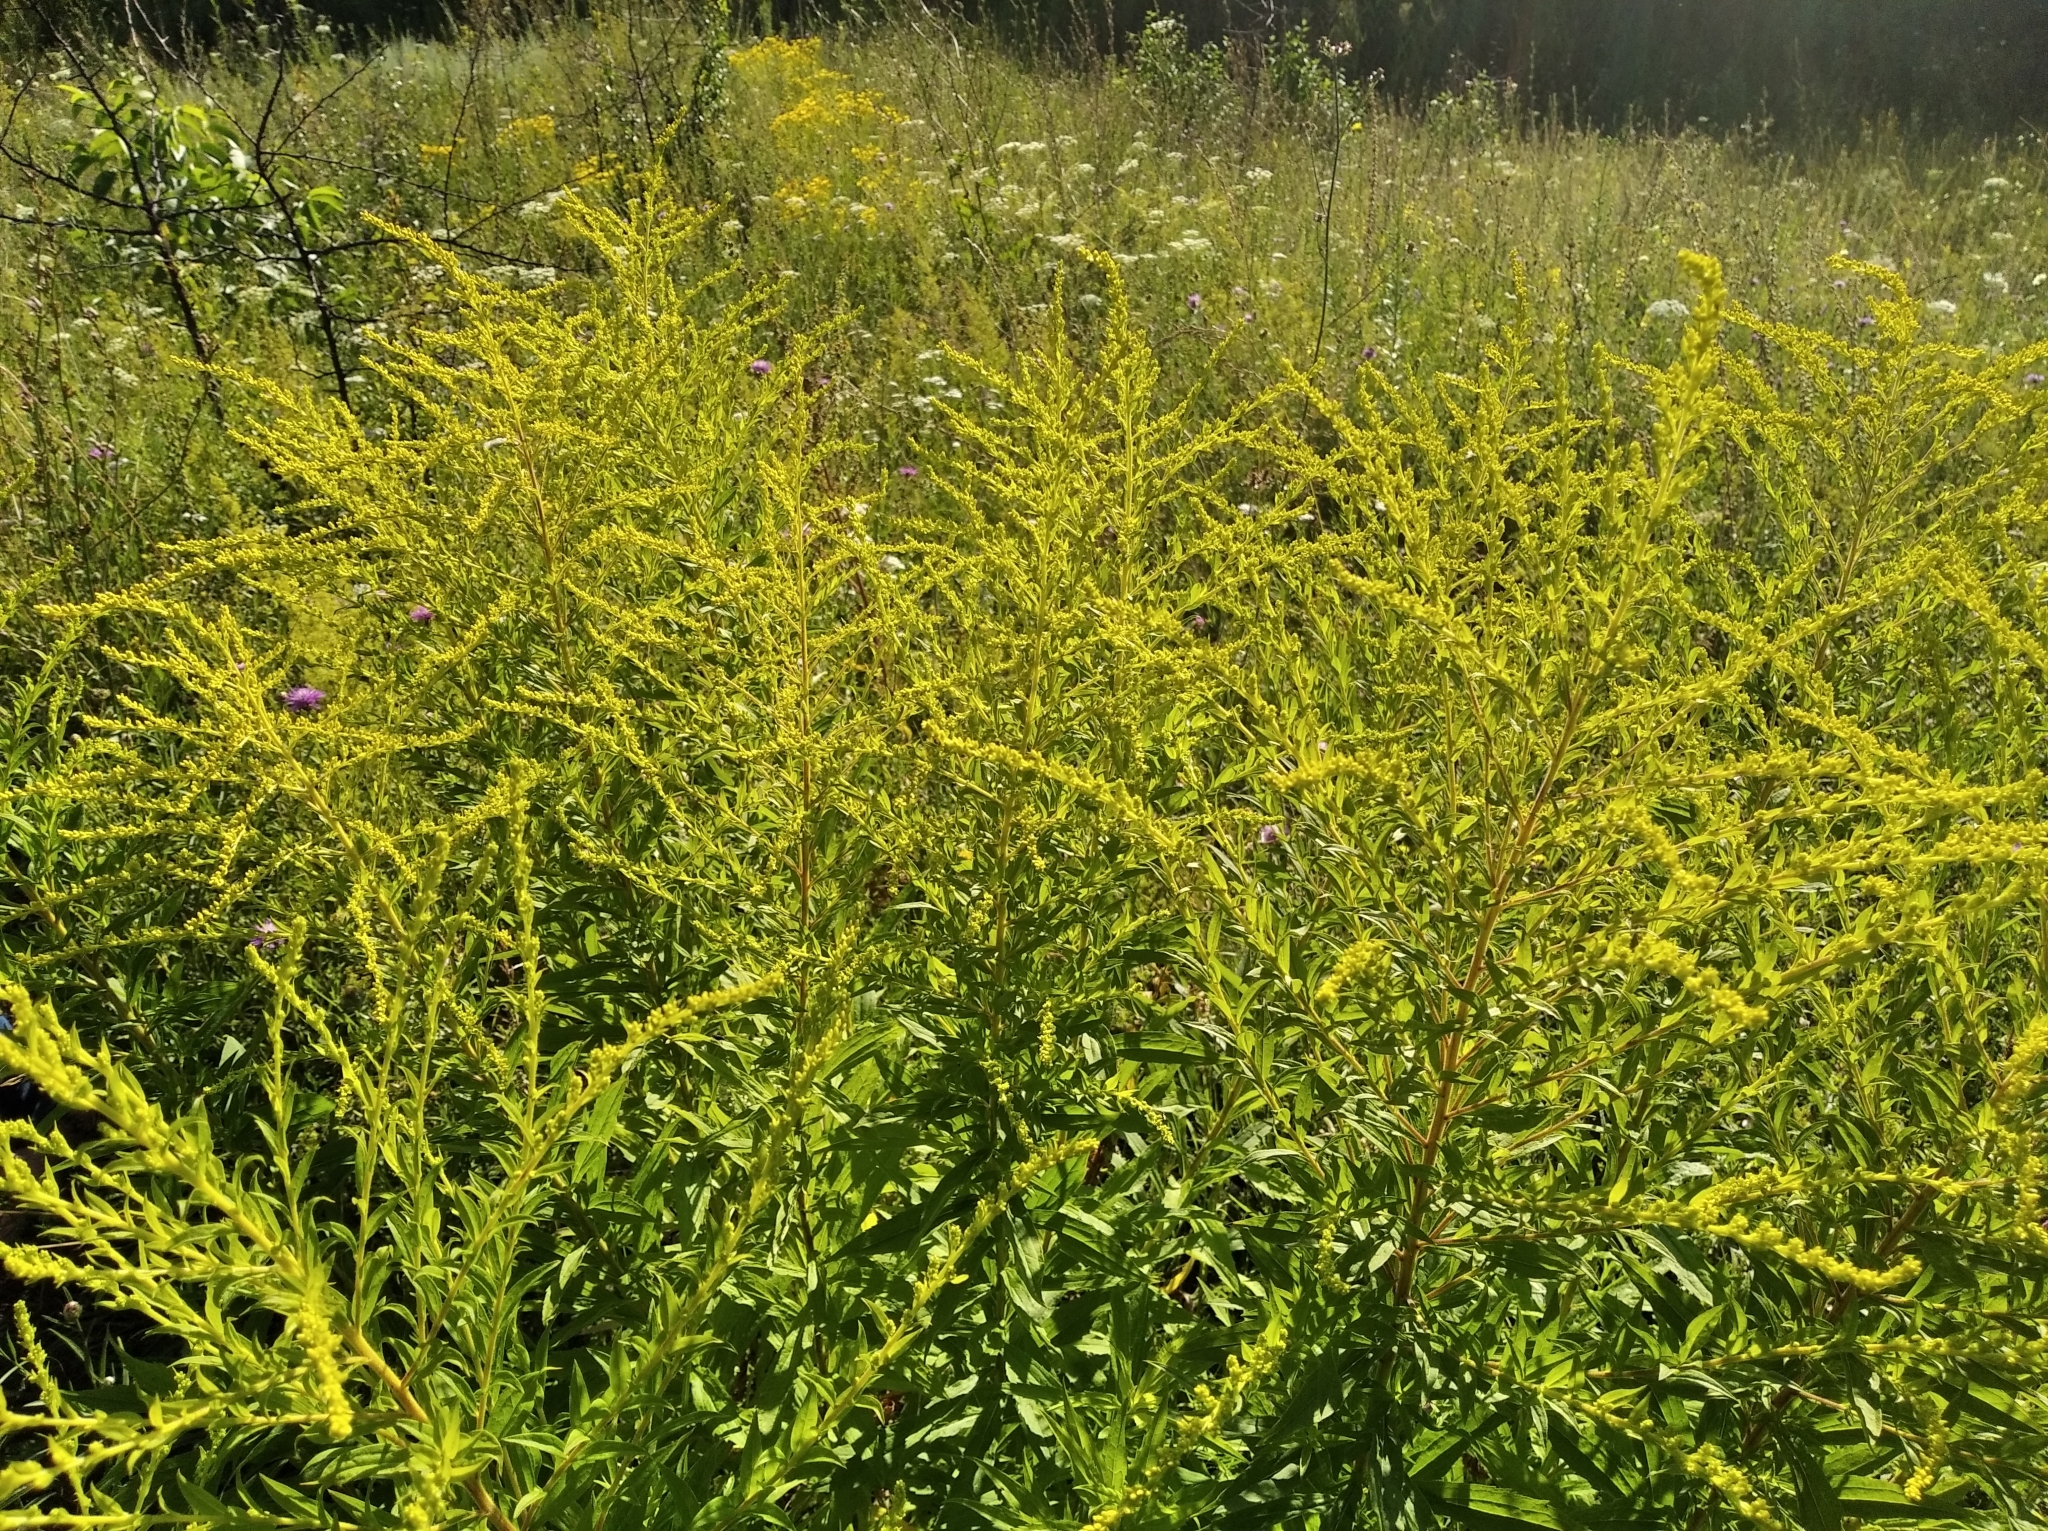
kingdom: Plantae
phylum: Tracheophyta
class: Magnoliopsida
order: Asterales
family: Asteraceae
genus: Solidago
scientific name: Solidago canadensis
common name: Canada goldenrod
